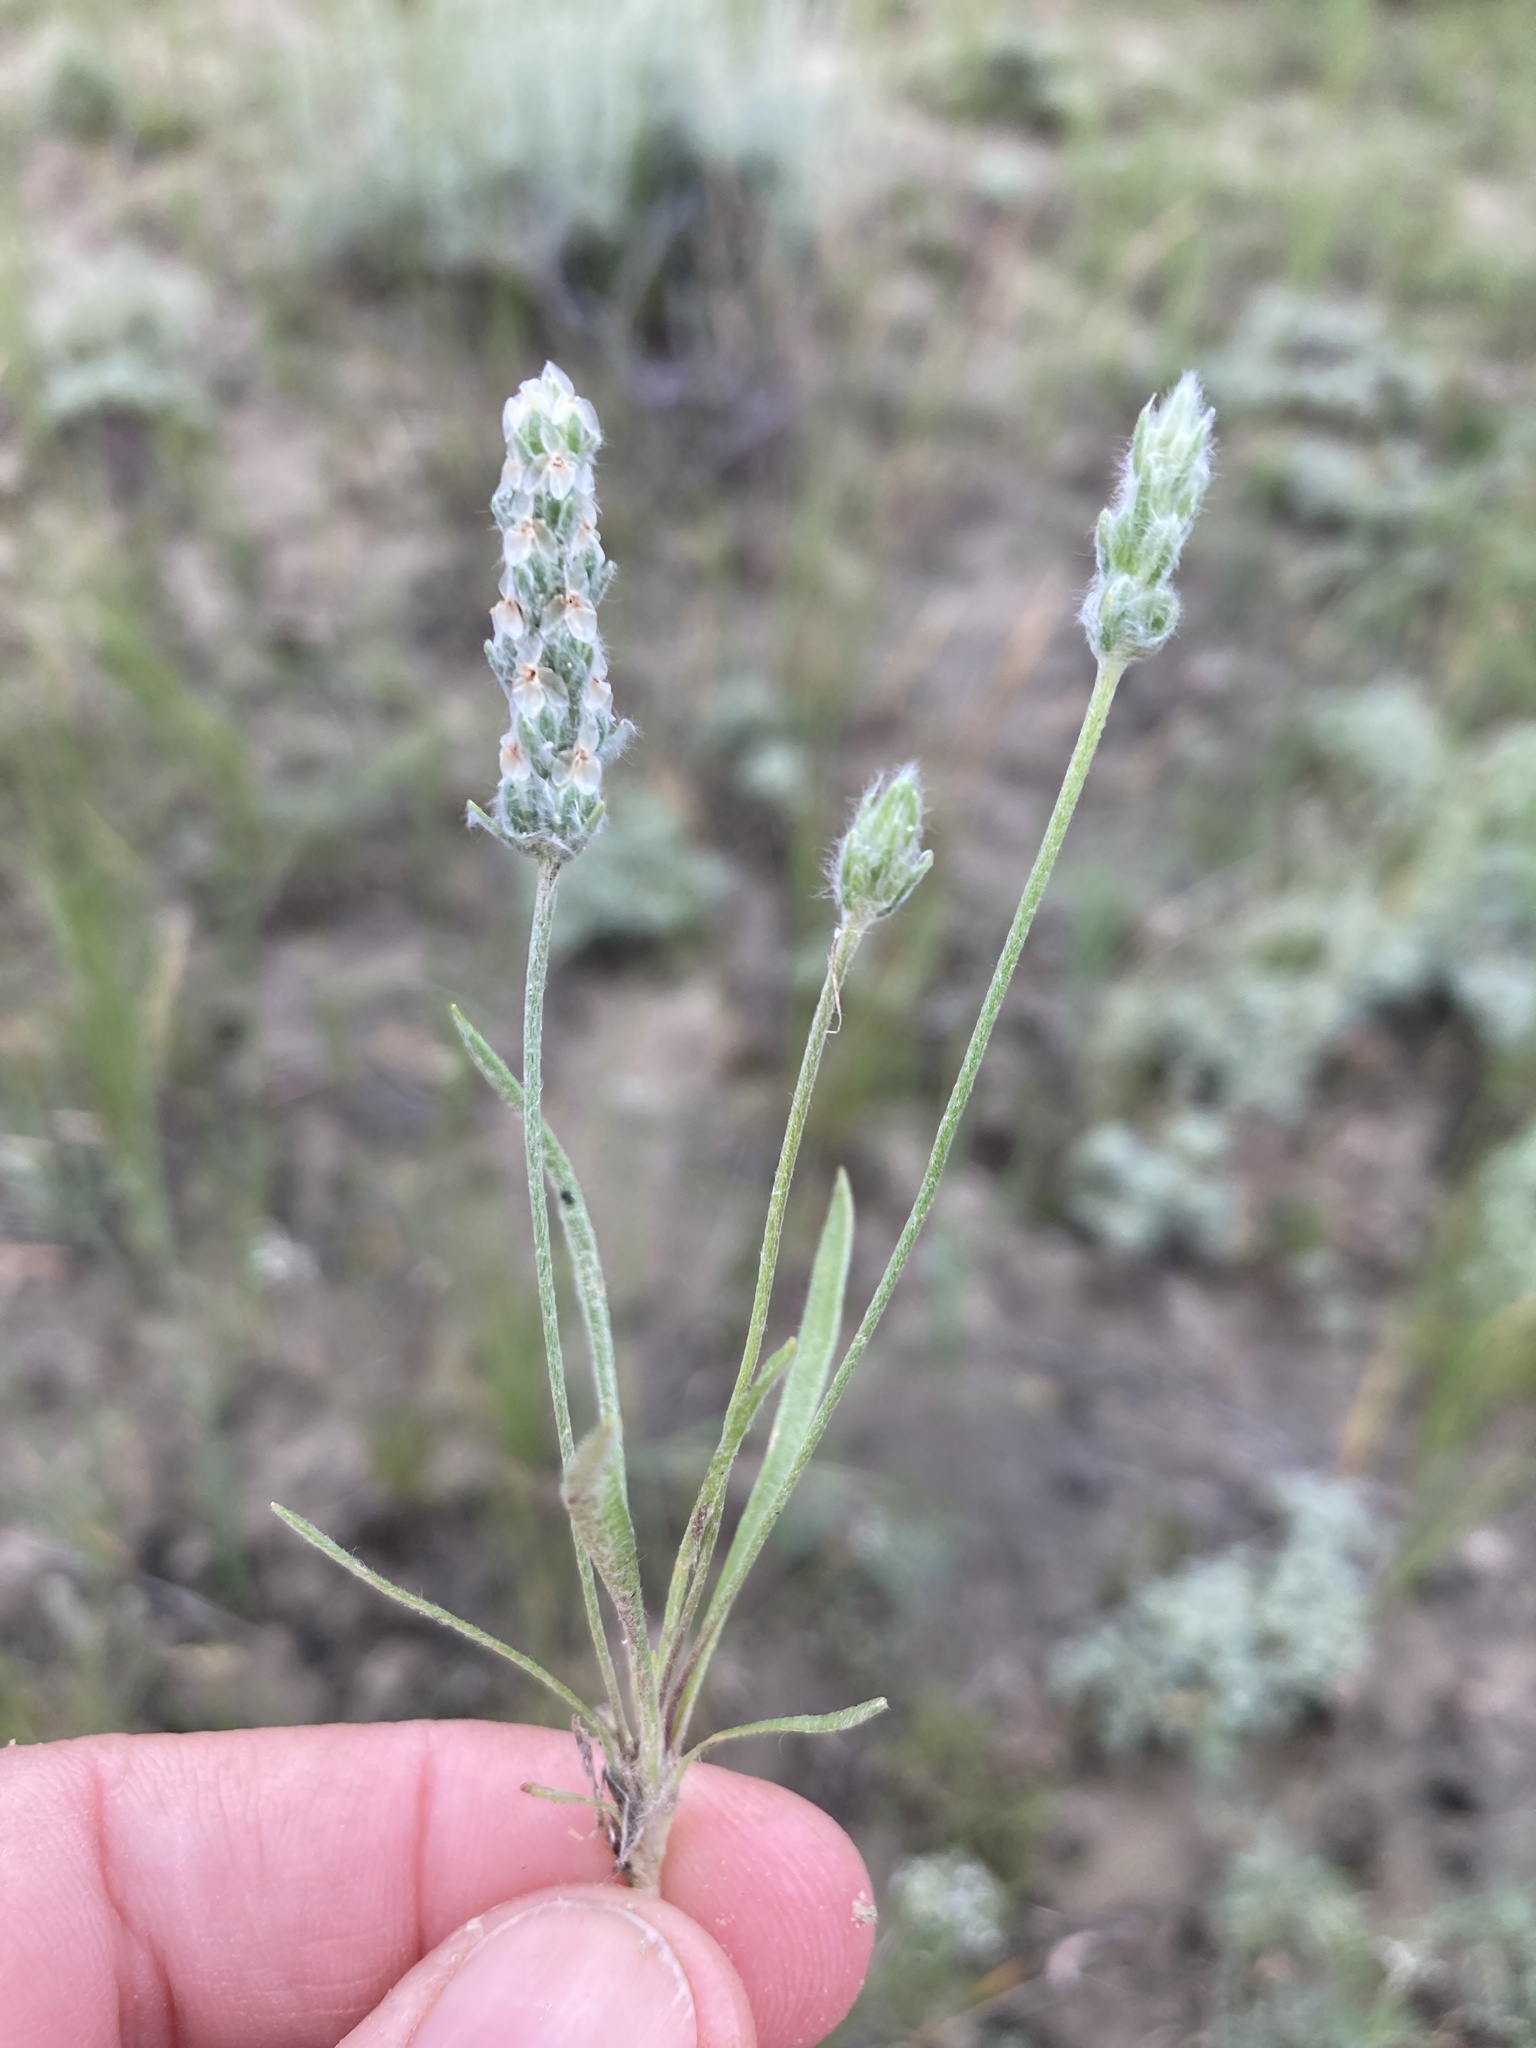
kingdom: Plantae
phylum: Tracheophyta
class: Magnoliopsida
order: Lamiales
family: Plantaginaceae
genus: Plantago
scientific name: Plantago patagonica
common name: Patagonia indian-wheat
